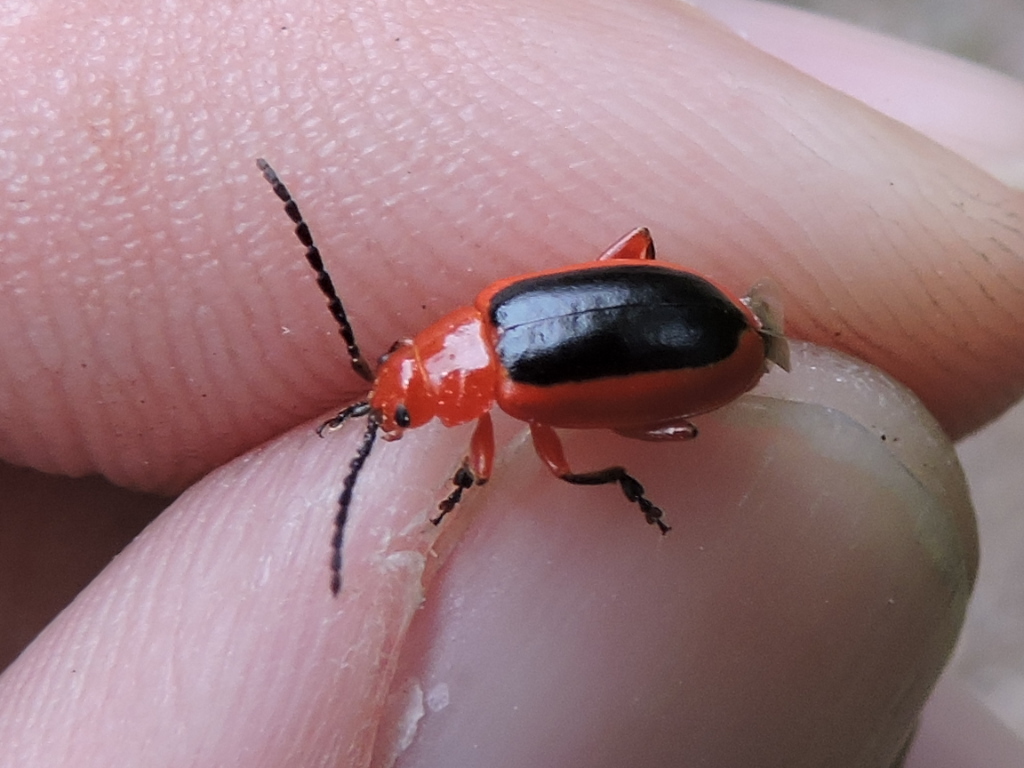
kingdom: Animalia
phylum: Arthropoda
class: Insecta
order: Coleoptera
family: Chrysomelidae
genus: Disonycha
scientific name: Disonycha discoidea
